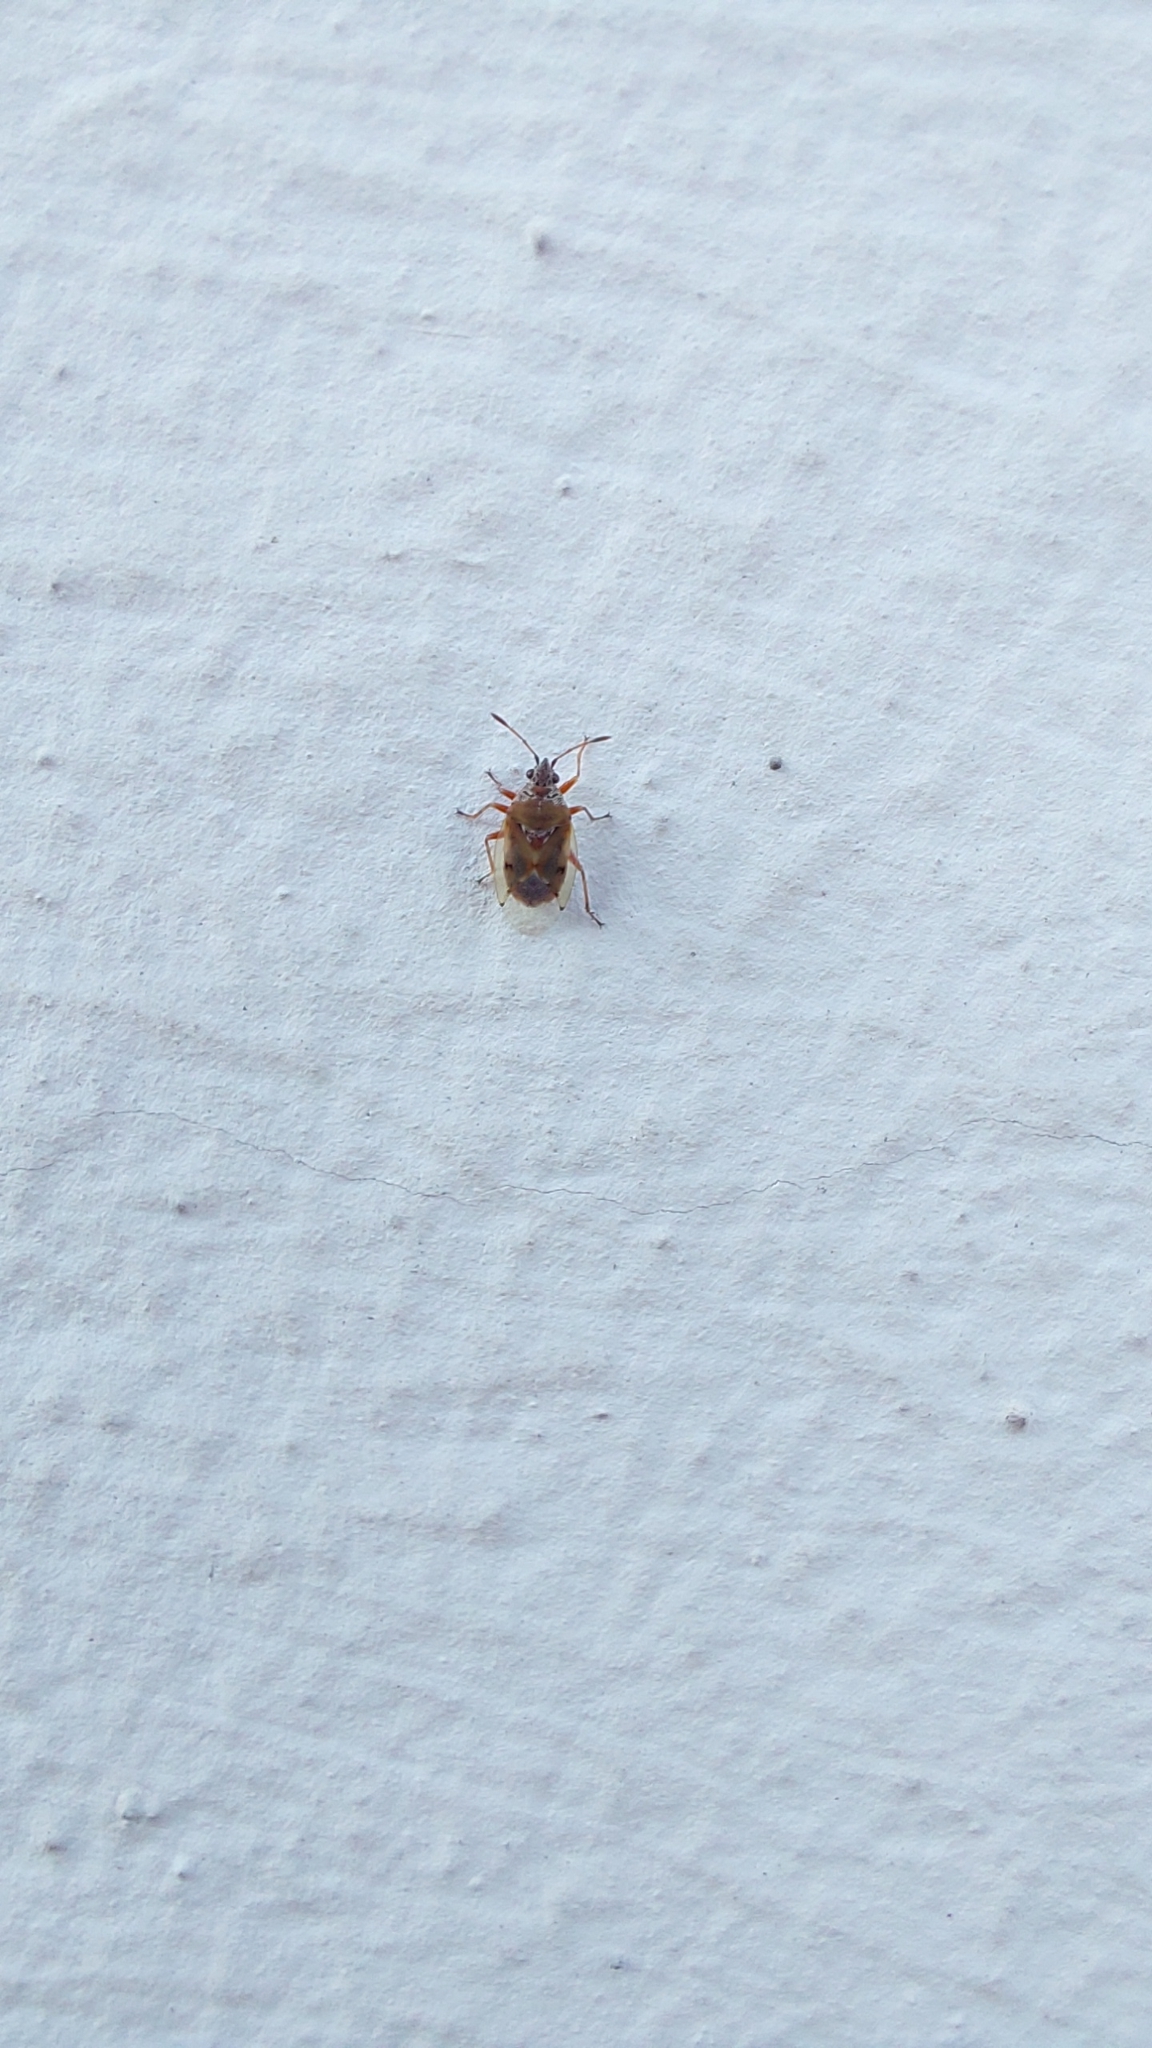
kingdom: Animalia
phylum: Arthropoda
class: Insecta
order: Hemiptera
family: Lygaeidae
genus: Kleidocerys
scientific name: Kleidocerys resedae
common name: Birch catkin bug
